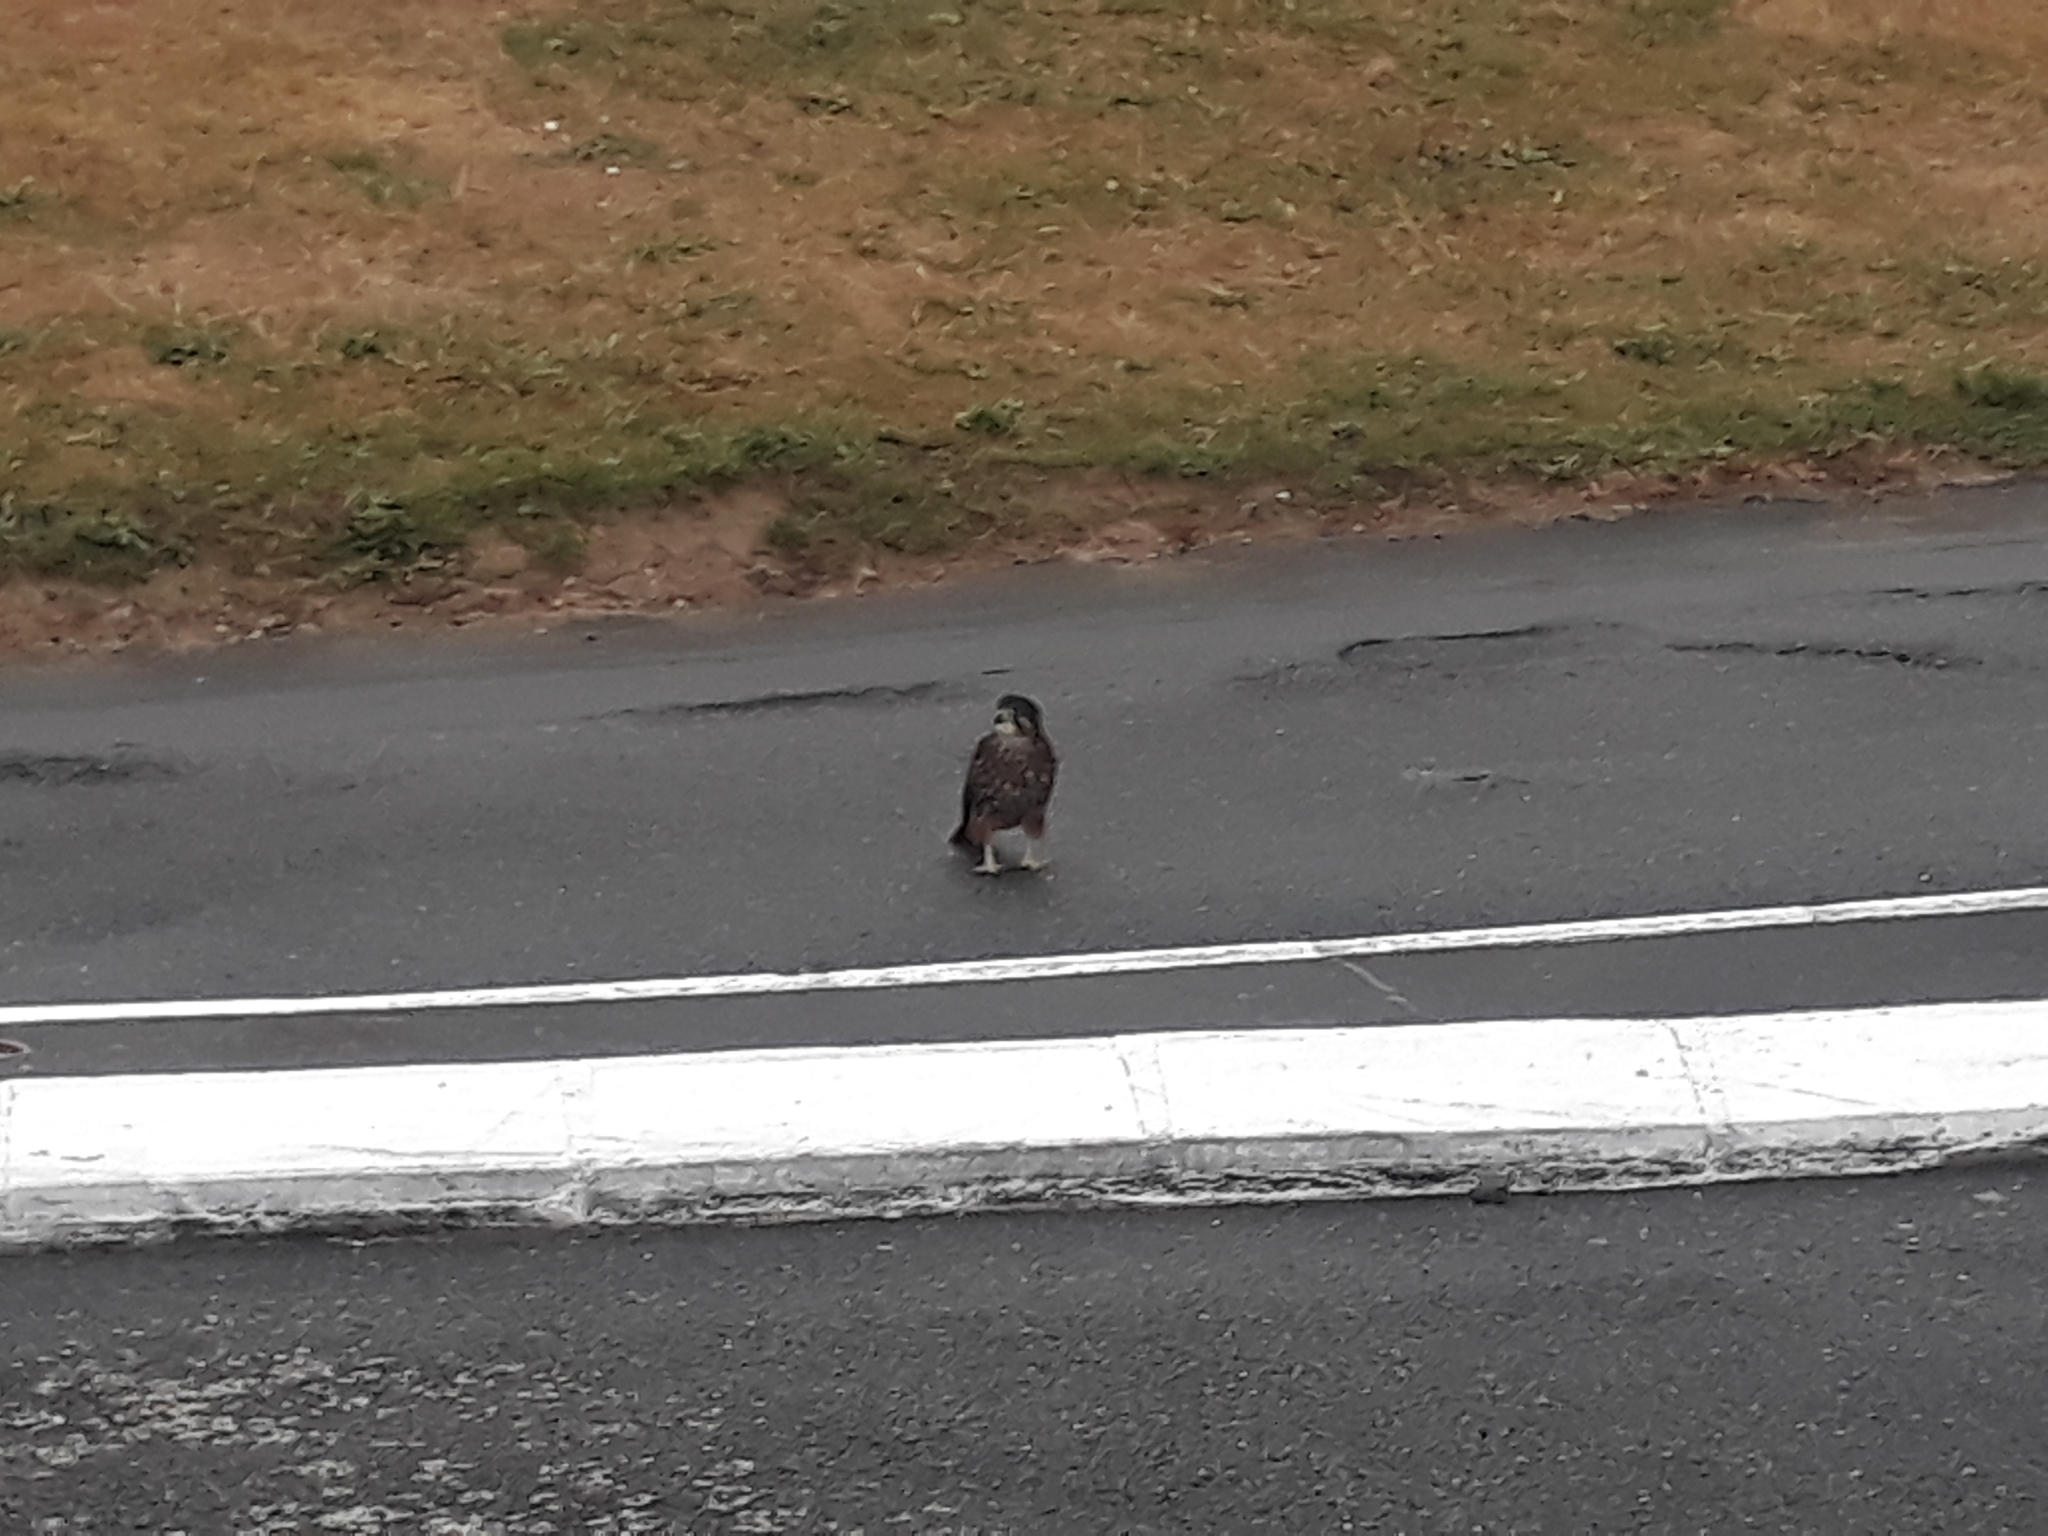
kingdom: Animalia
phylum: Chordata
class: Aves
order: Falconiformes
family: Falconidae
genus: Falco
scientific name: Falco novaeseelandiae
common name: New zealand falcon
